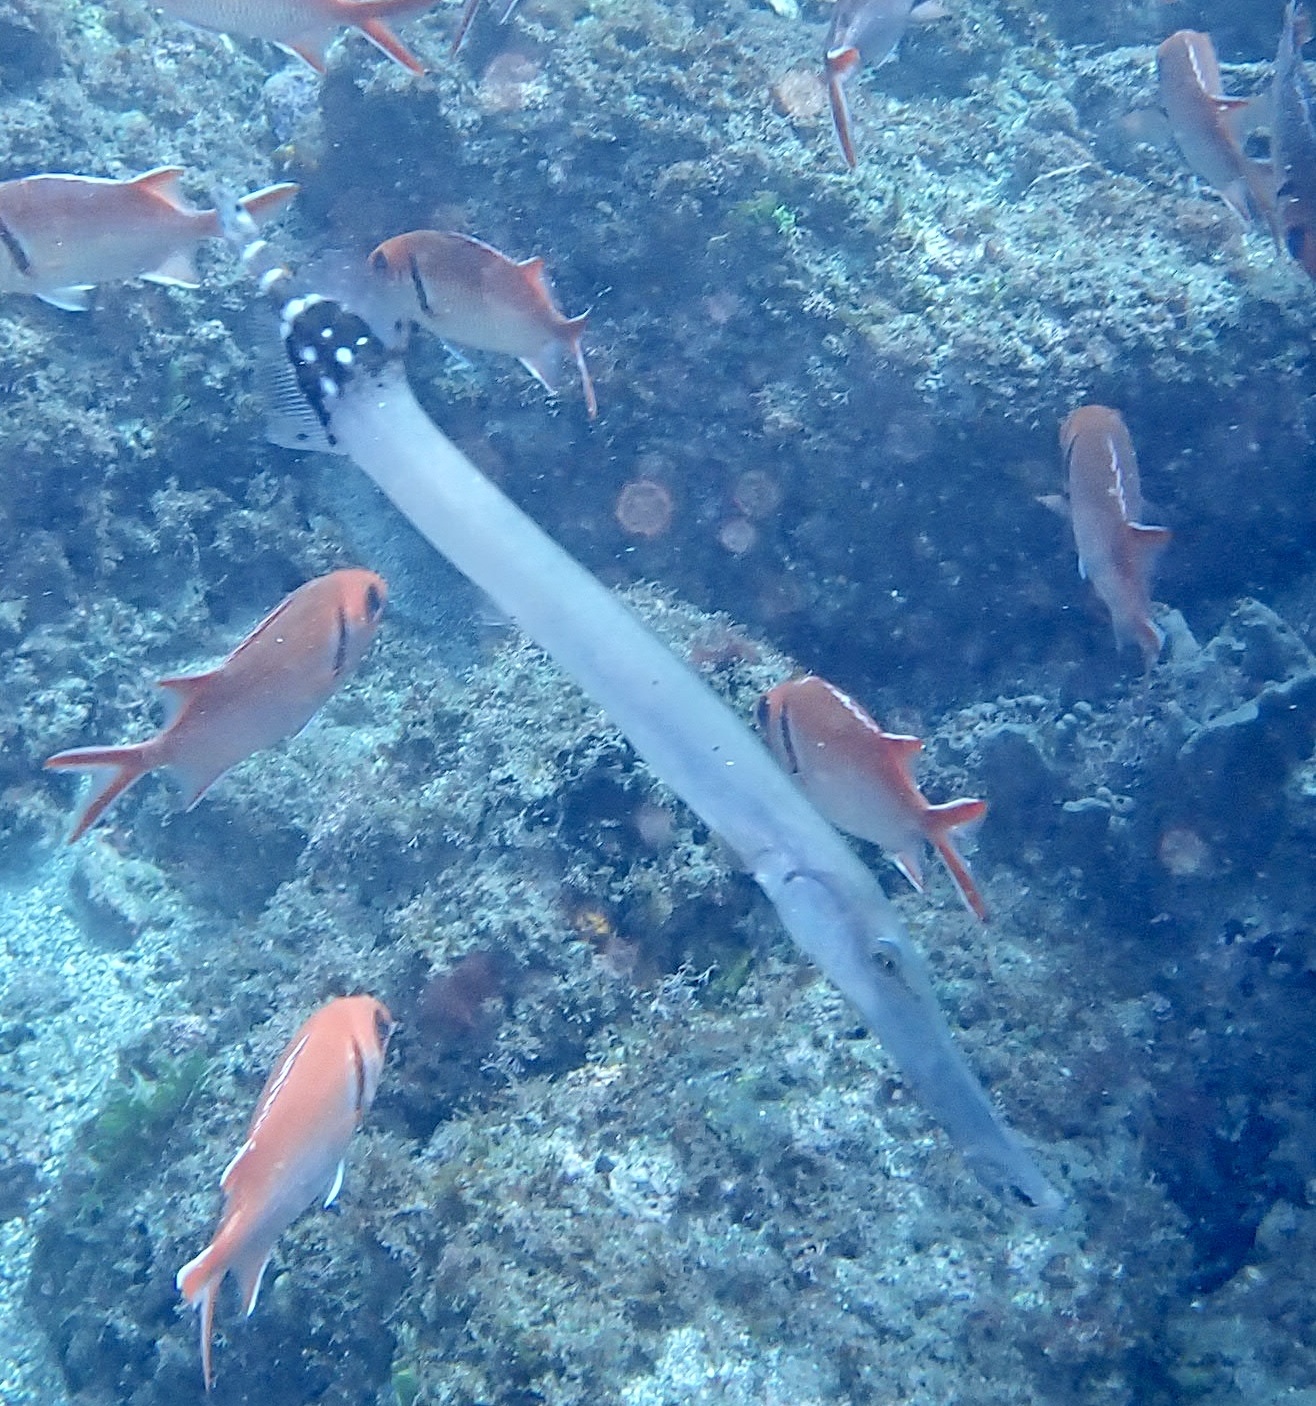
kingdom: Animalia
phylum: Chordata
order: Syngnathiformes
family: Aulostomidae
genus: Aulostomus
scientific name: Aulostomus strigosus
